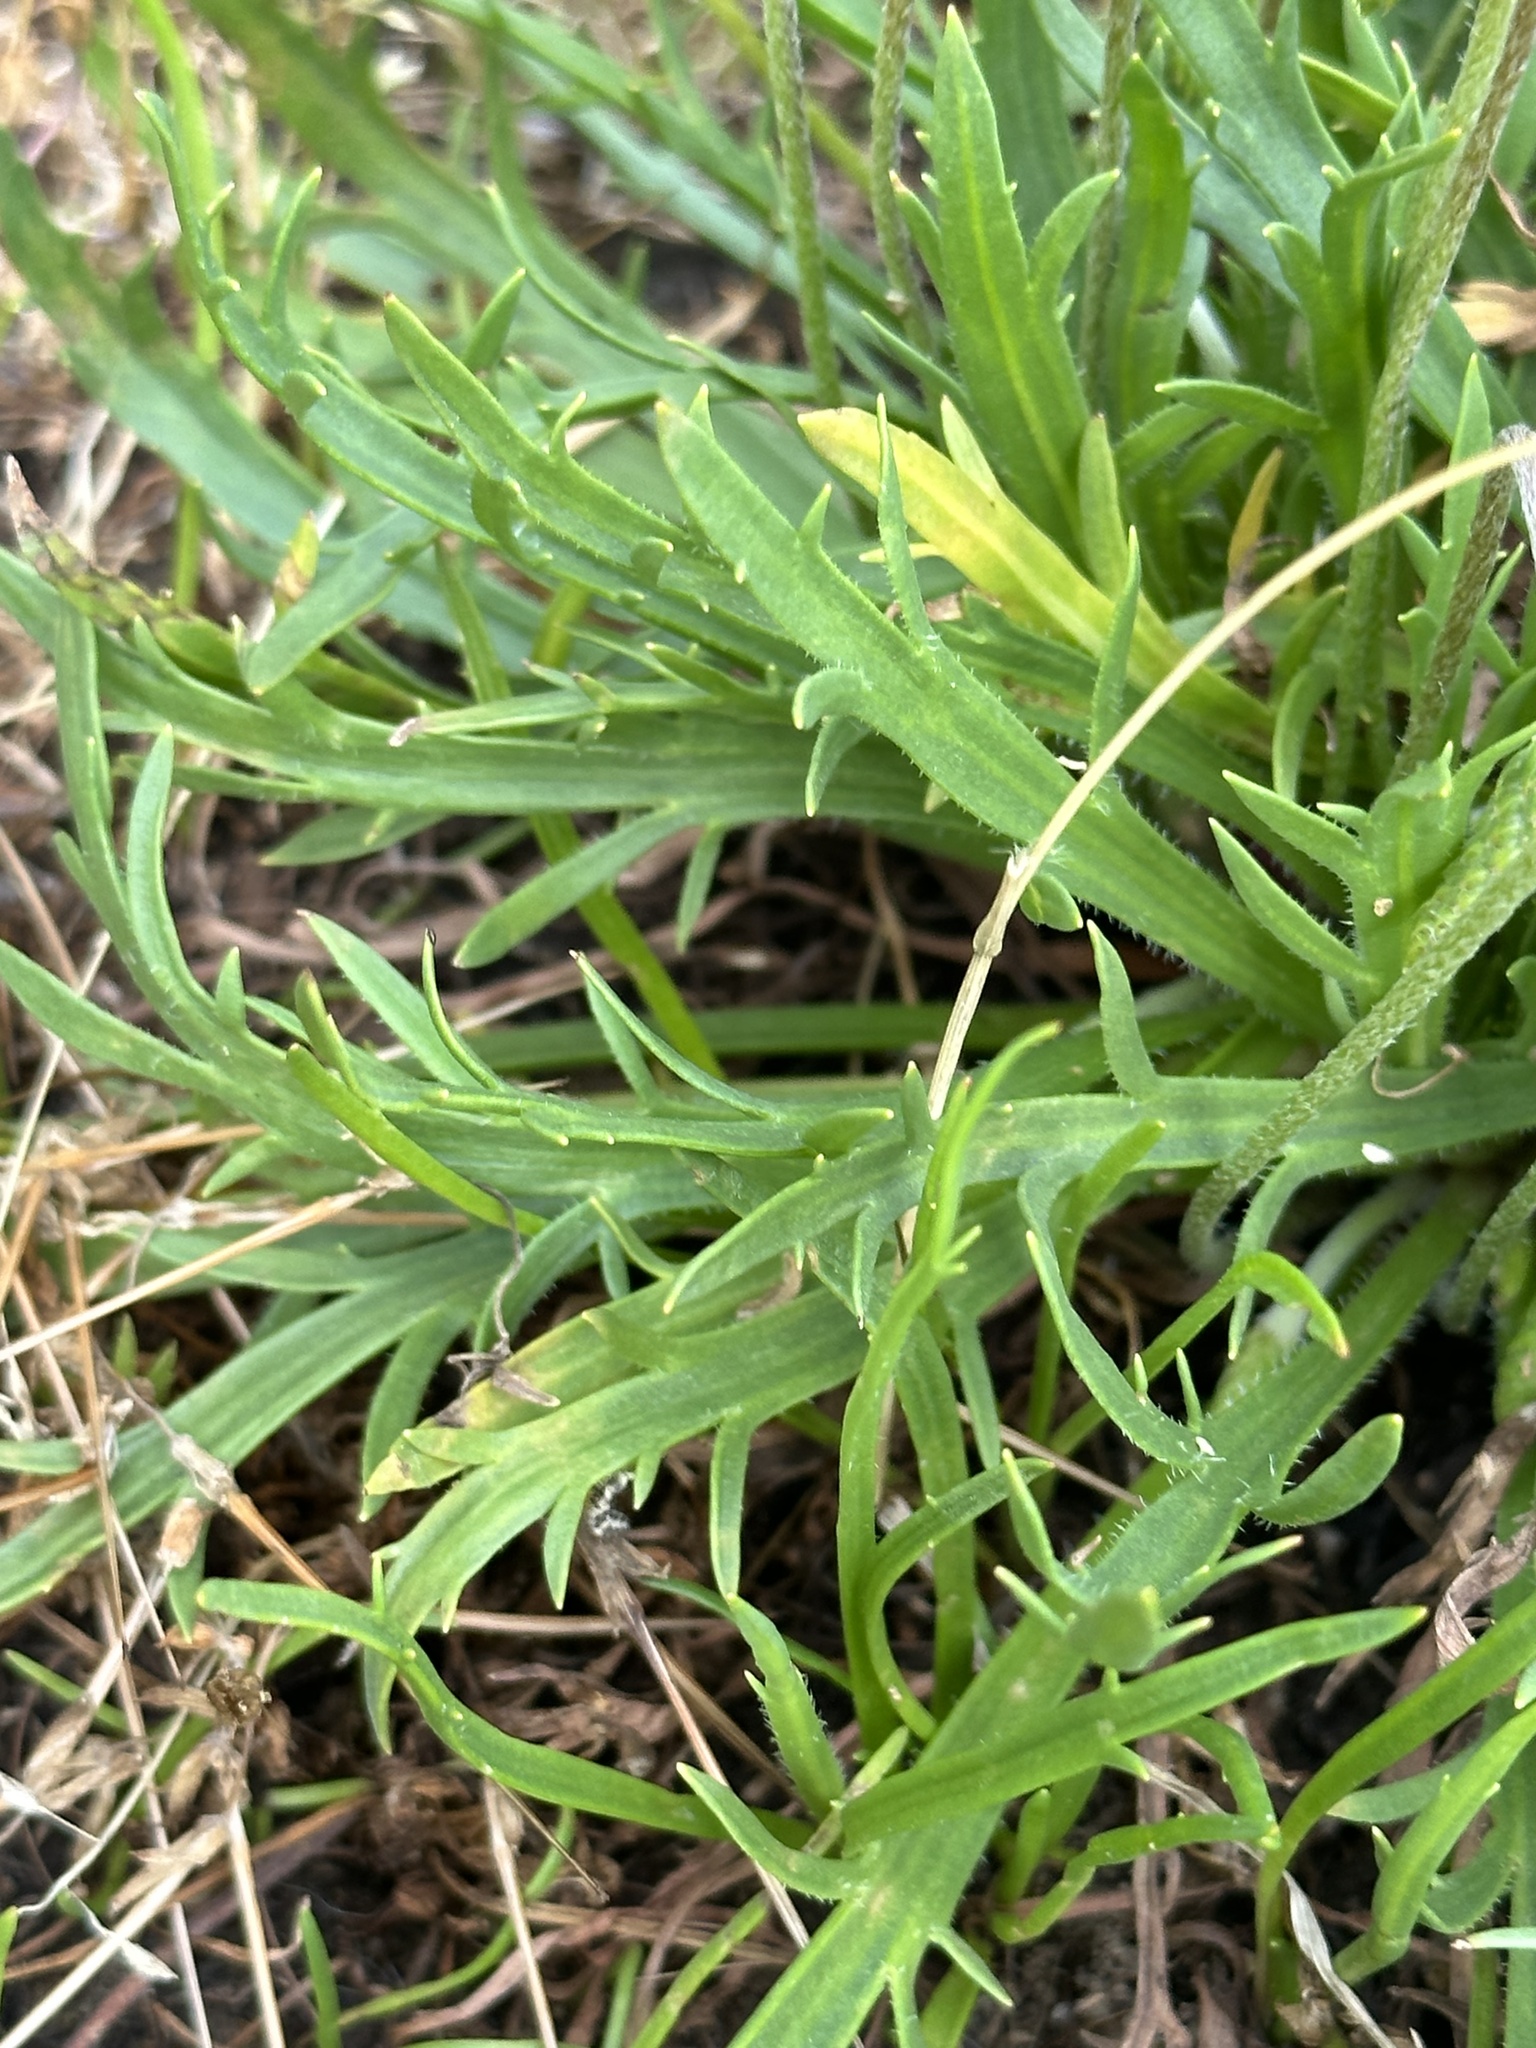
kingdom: Plantae
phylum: Tracheophyta
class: Magnoliopsida
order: Lamiales
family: Plantaginaceae
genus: Plantago
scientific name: Plantago coronopus
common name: Buck's-horn plantain
